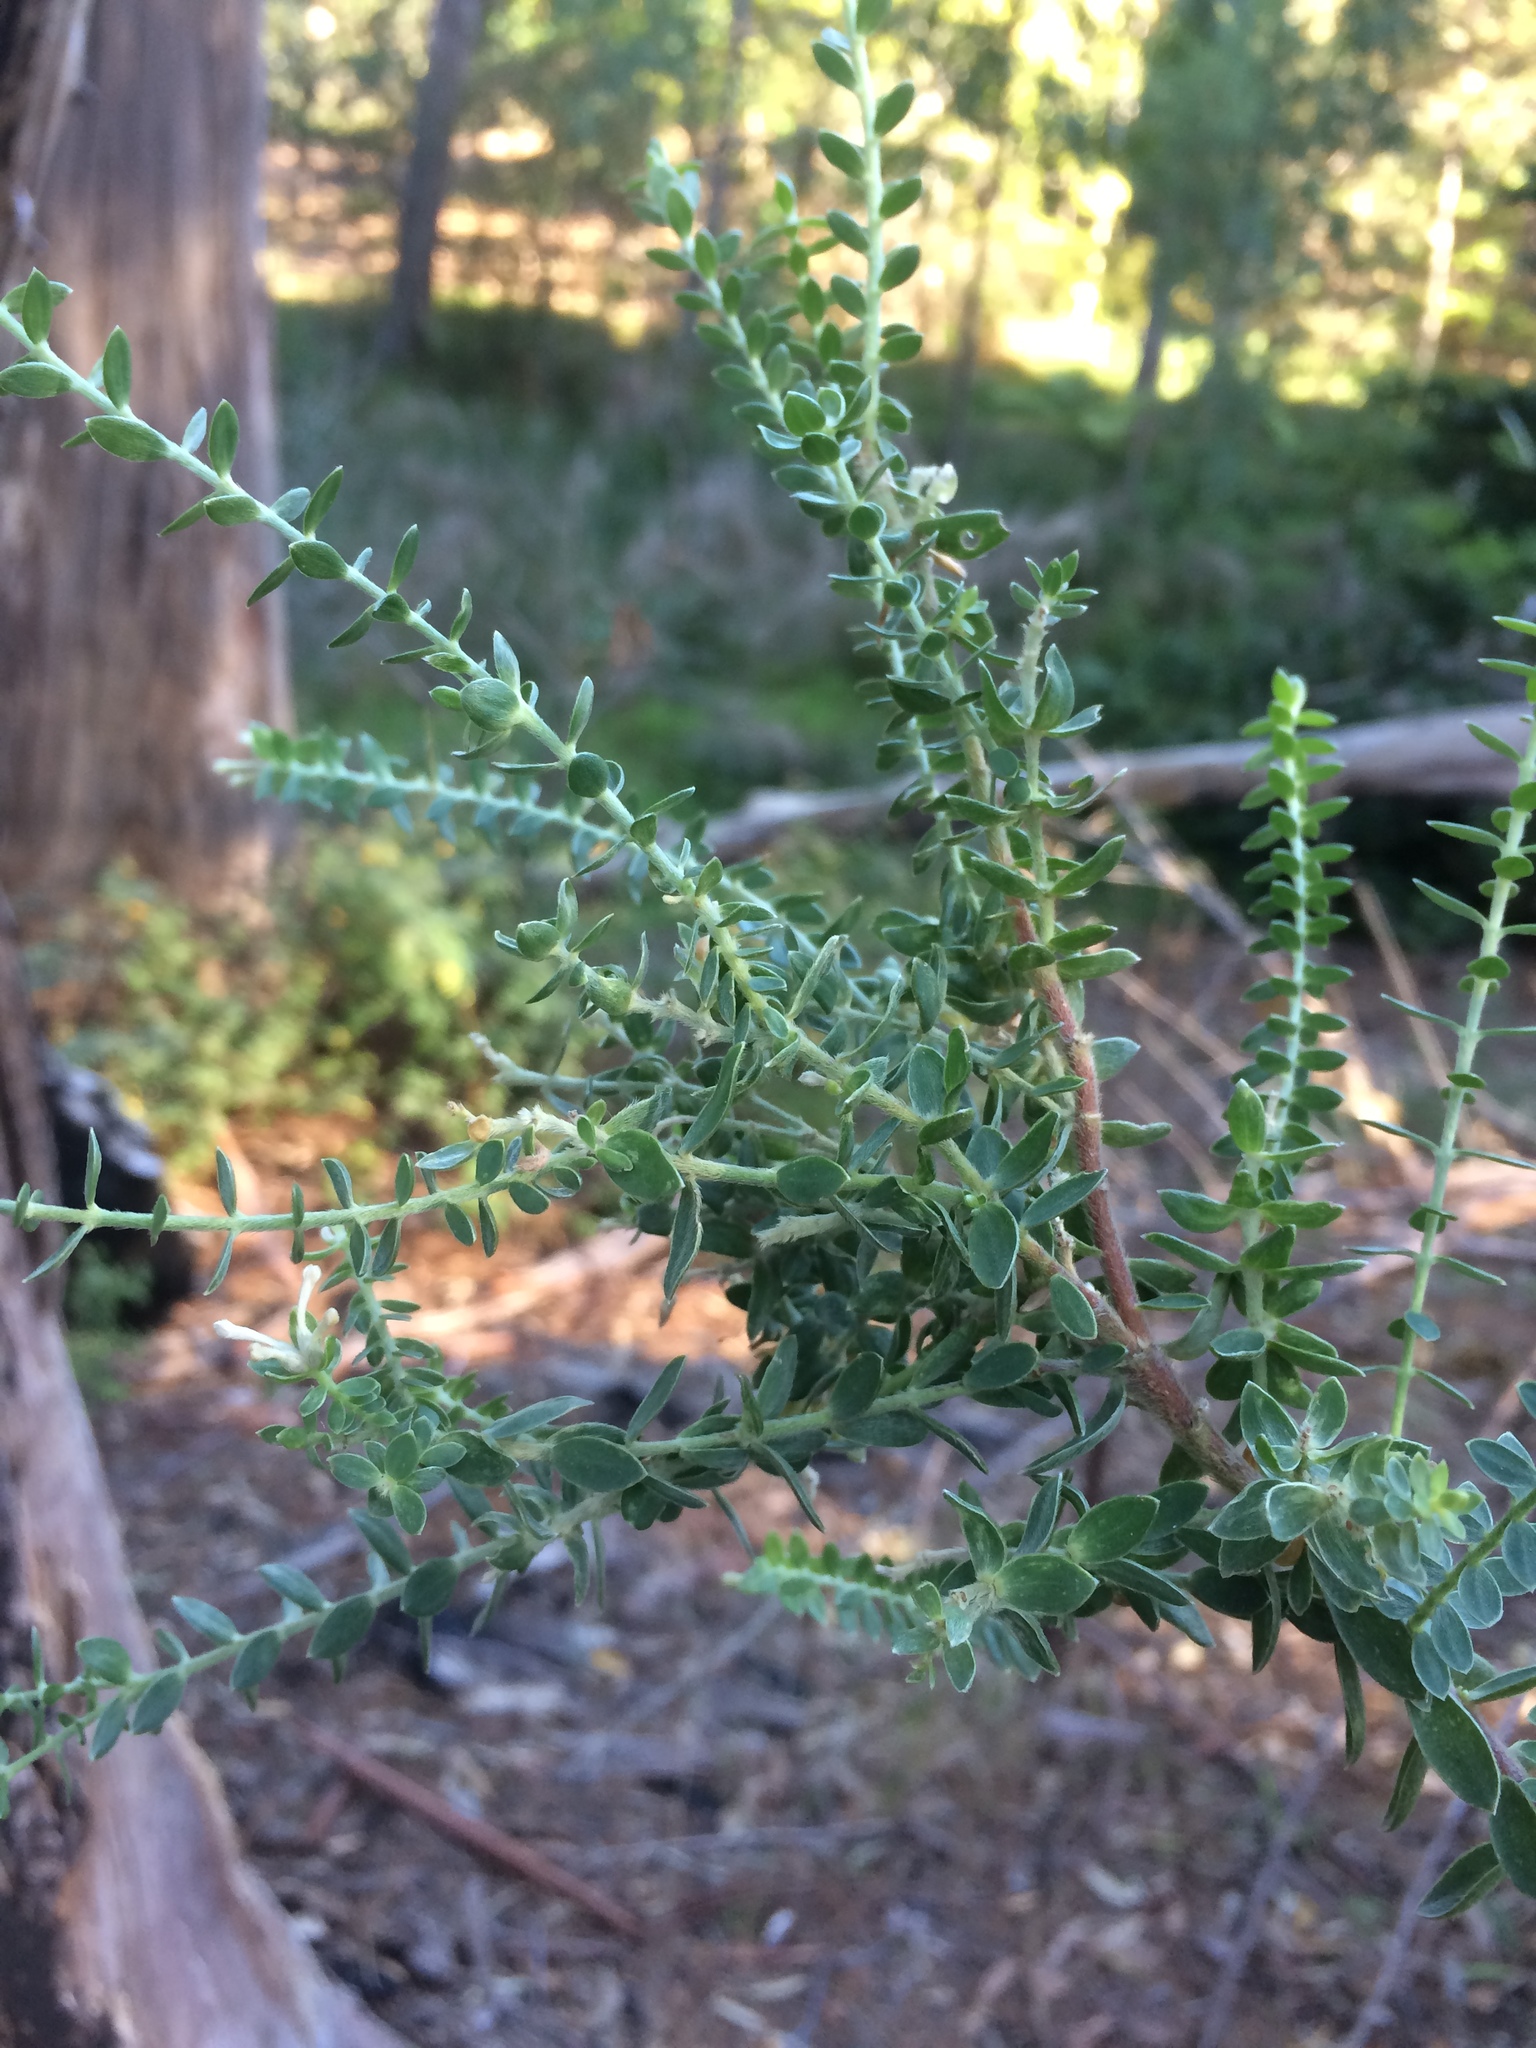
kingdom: Plantae
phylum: Tracheophyta
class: Magnoliopsida
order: Malvales
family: Thymelaeaceae
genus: Gnidia
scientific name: Gnidia sericea
